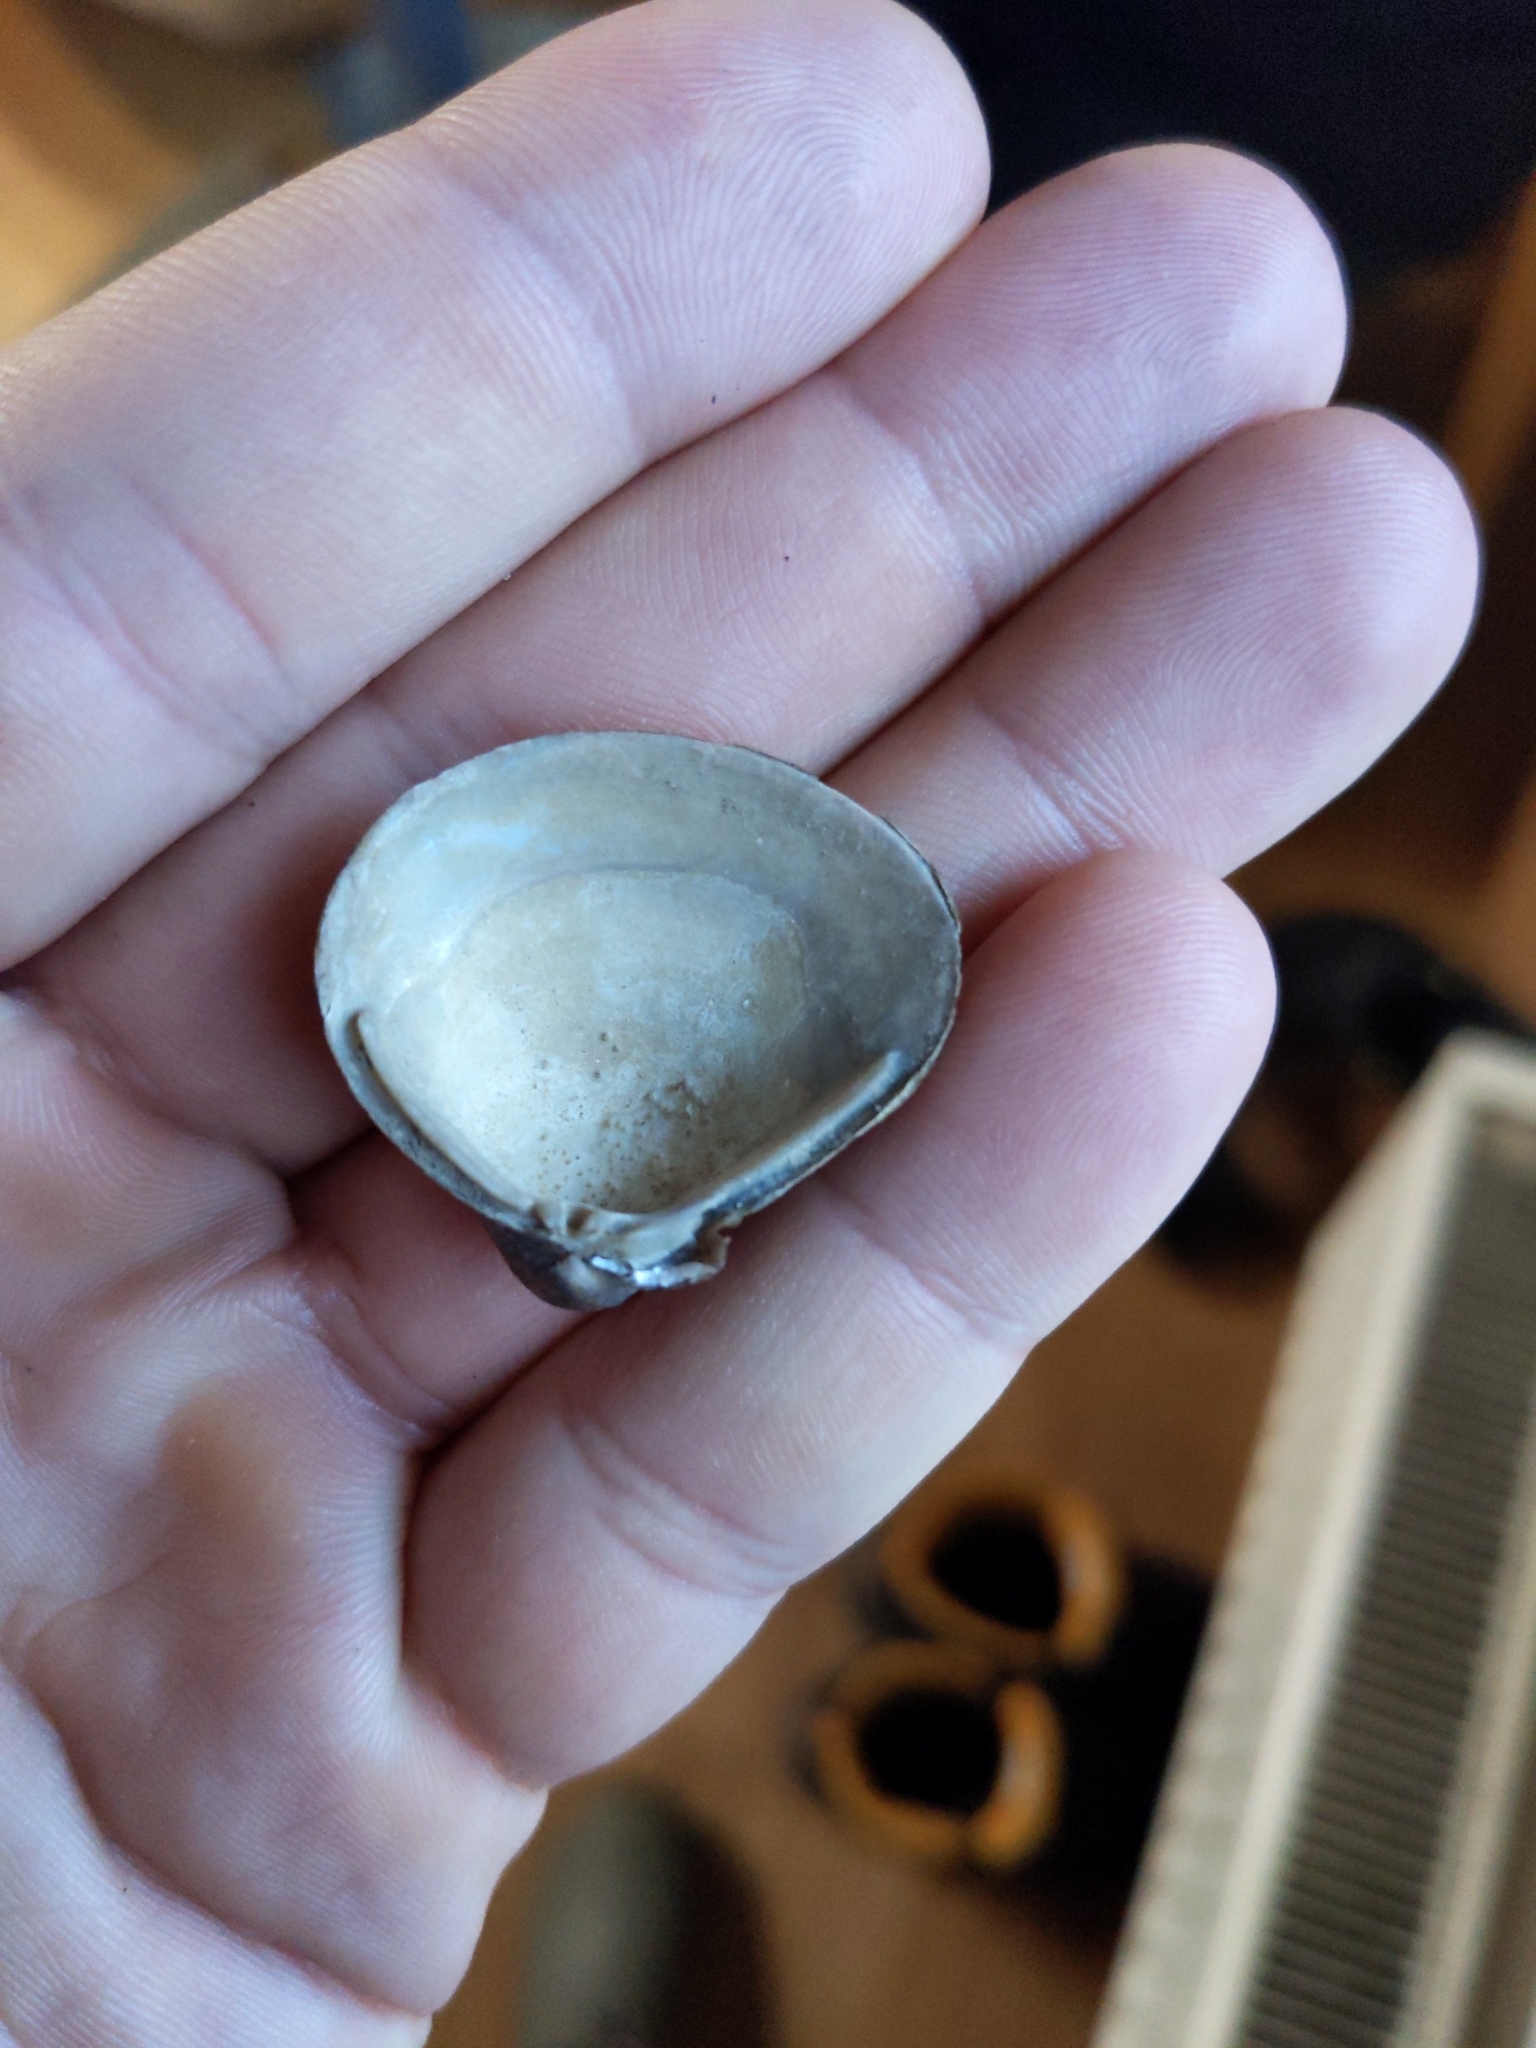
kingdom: Animalia
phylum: Mollusca
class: Bivalvia
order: Venerida
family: Cyrenidae
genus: Corbicula
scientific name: Corbicula fluminea
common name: Asian clam
